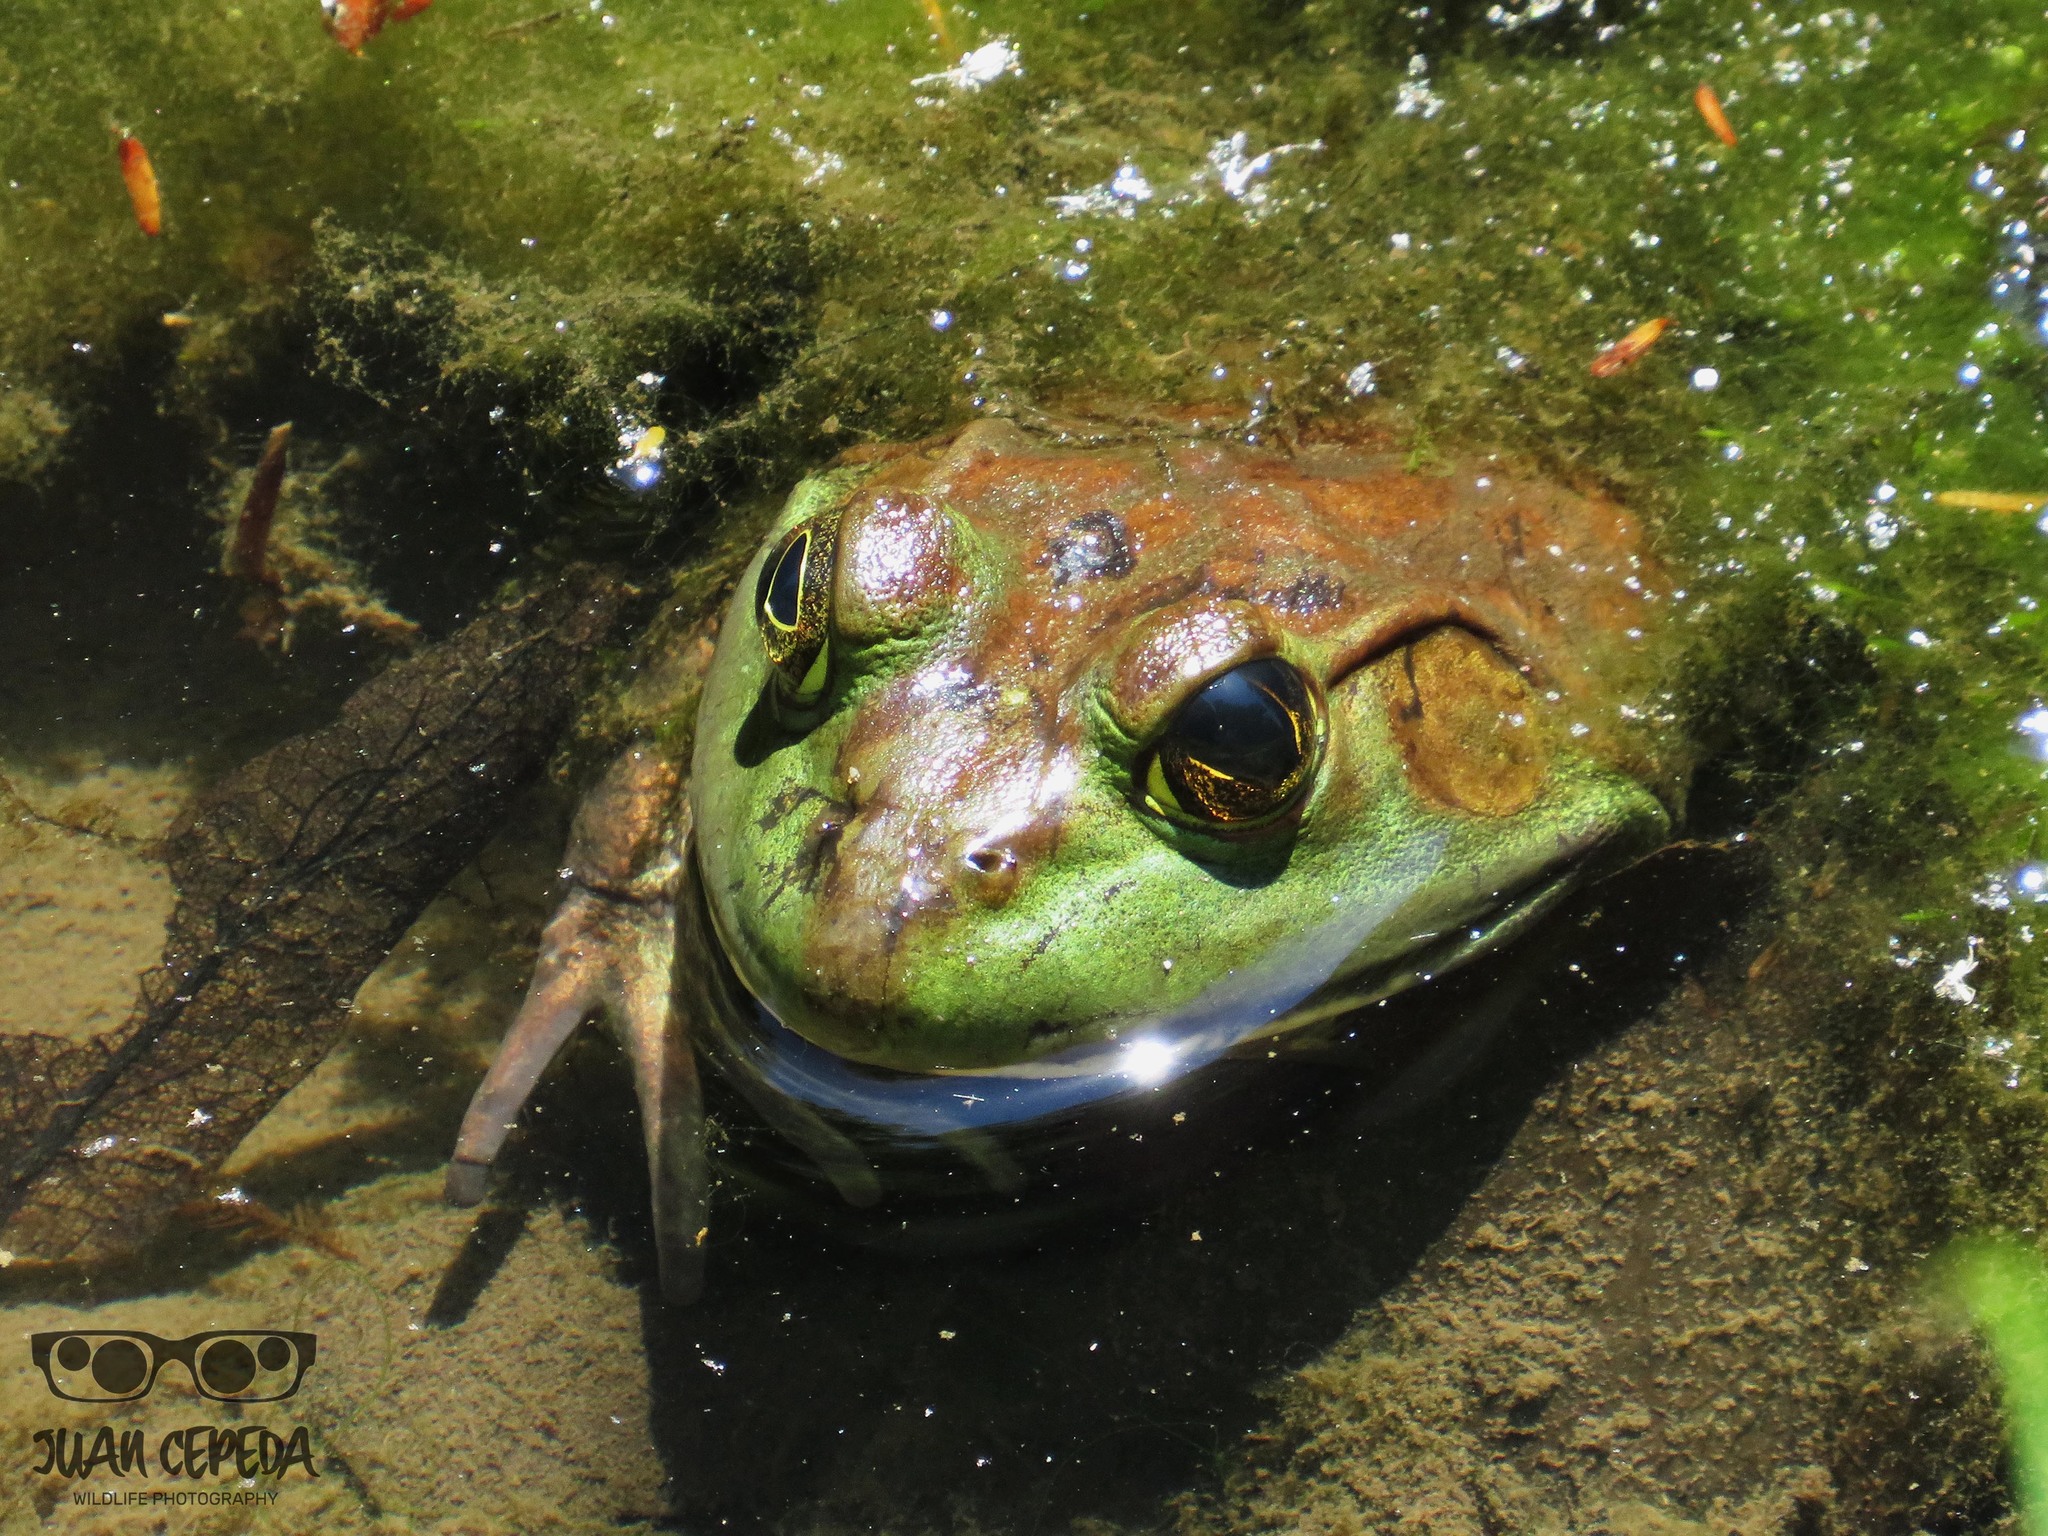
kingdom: Animalia
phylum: Chordata
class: Amphibia
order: Anura
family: Ranidae
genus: Lithobates
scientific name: Lithobates catesbeianus
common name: American bullfrog
